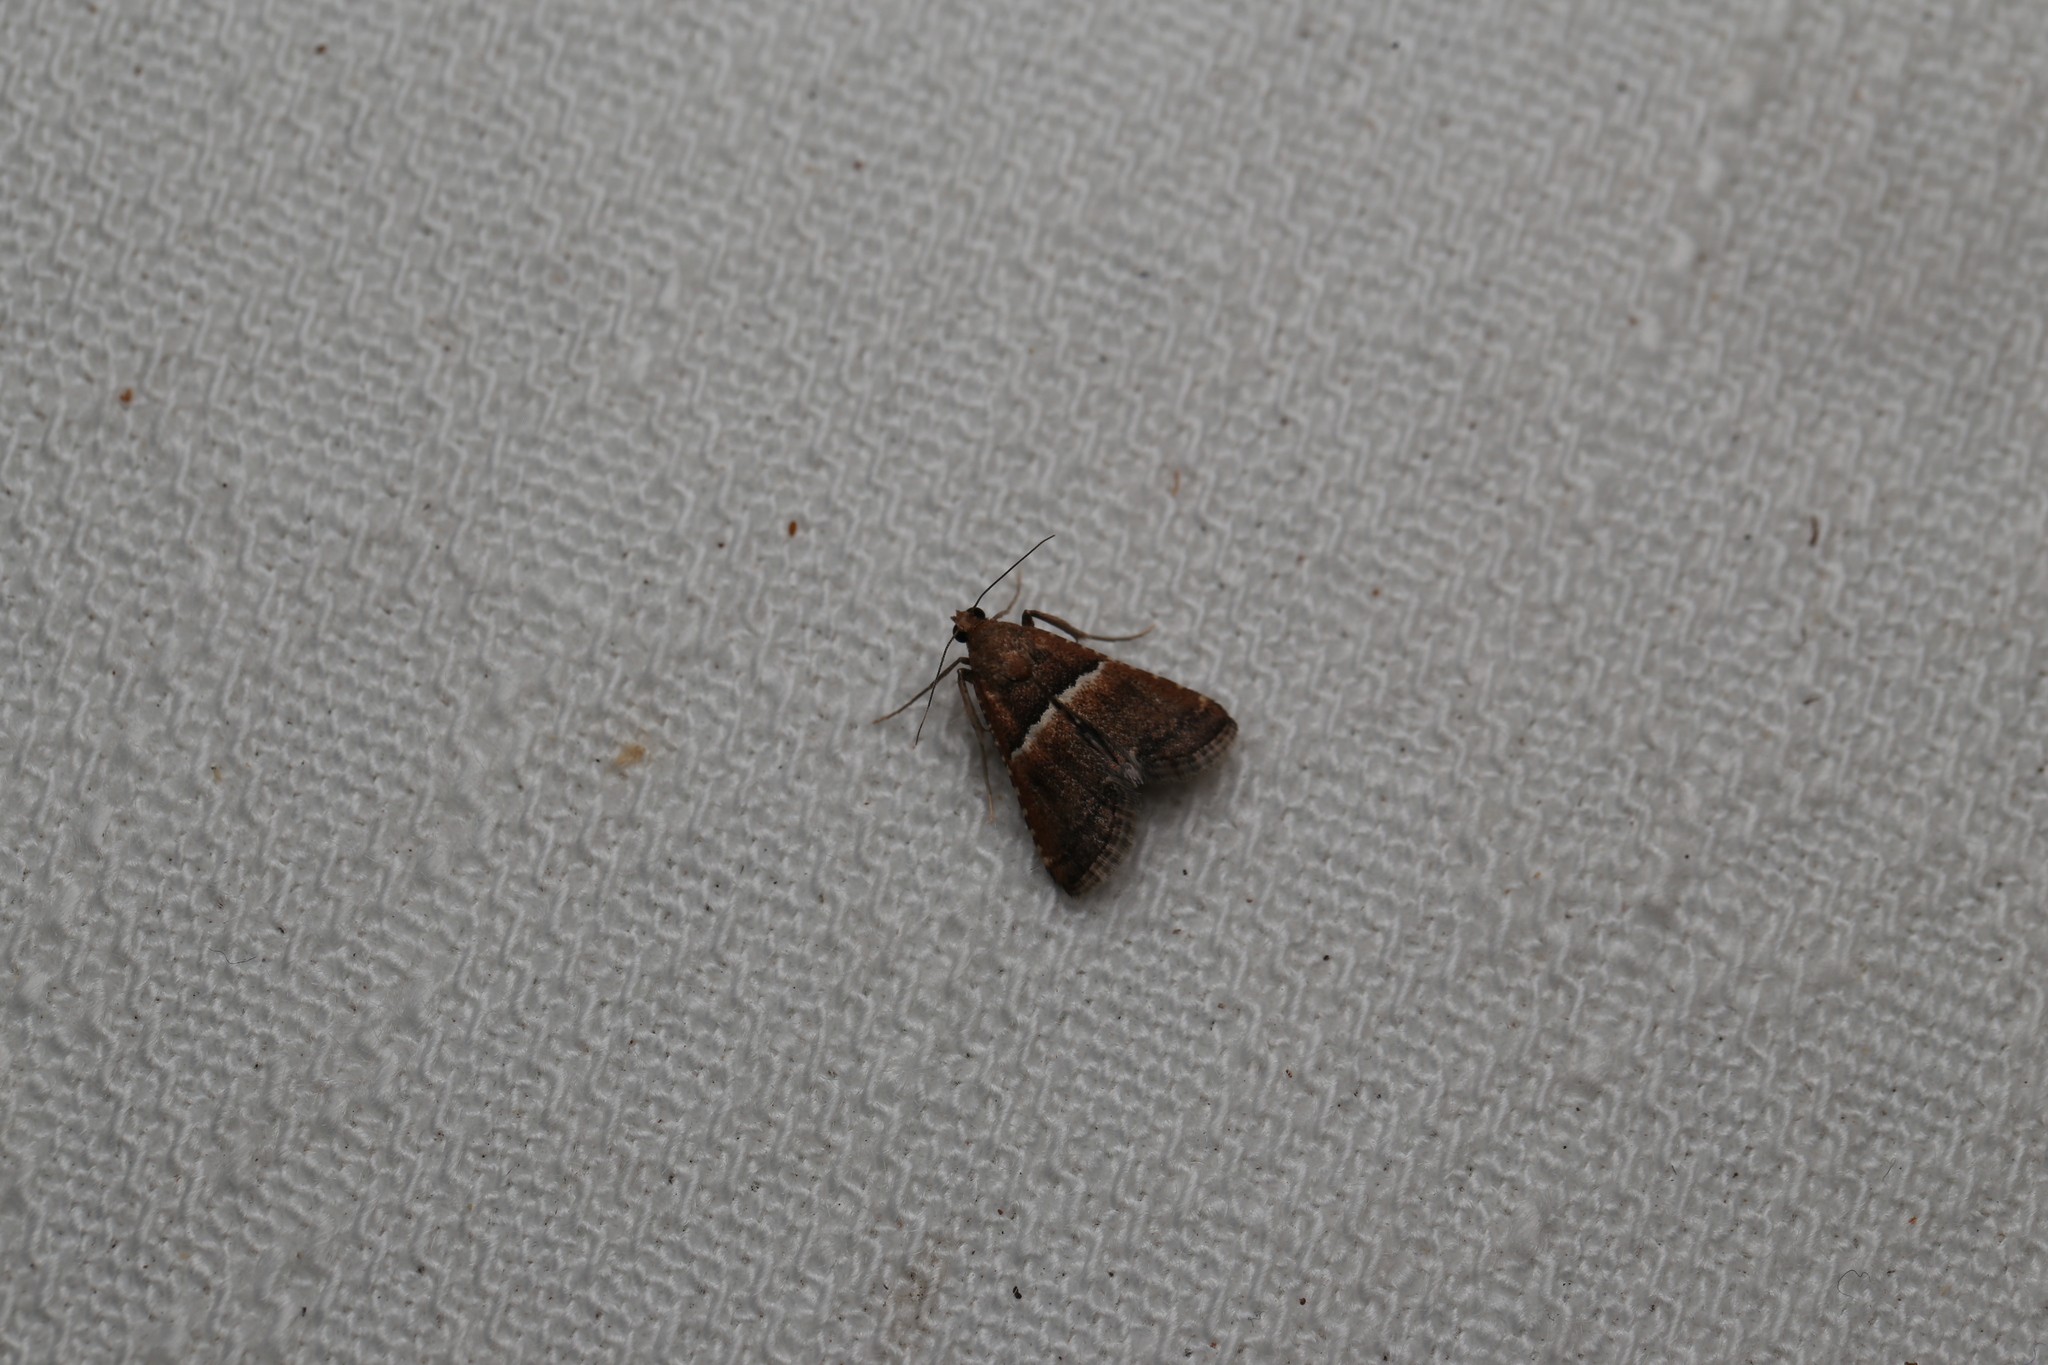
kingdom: Animalia
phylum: Arthropoda
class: Insecta
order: Lepidoptera
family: Pyralidae
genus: Endotricha
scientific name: Endotricha puncticostalis
